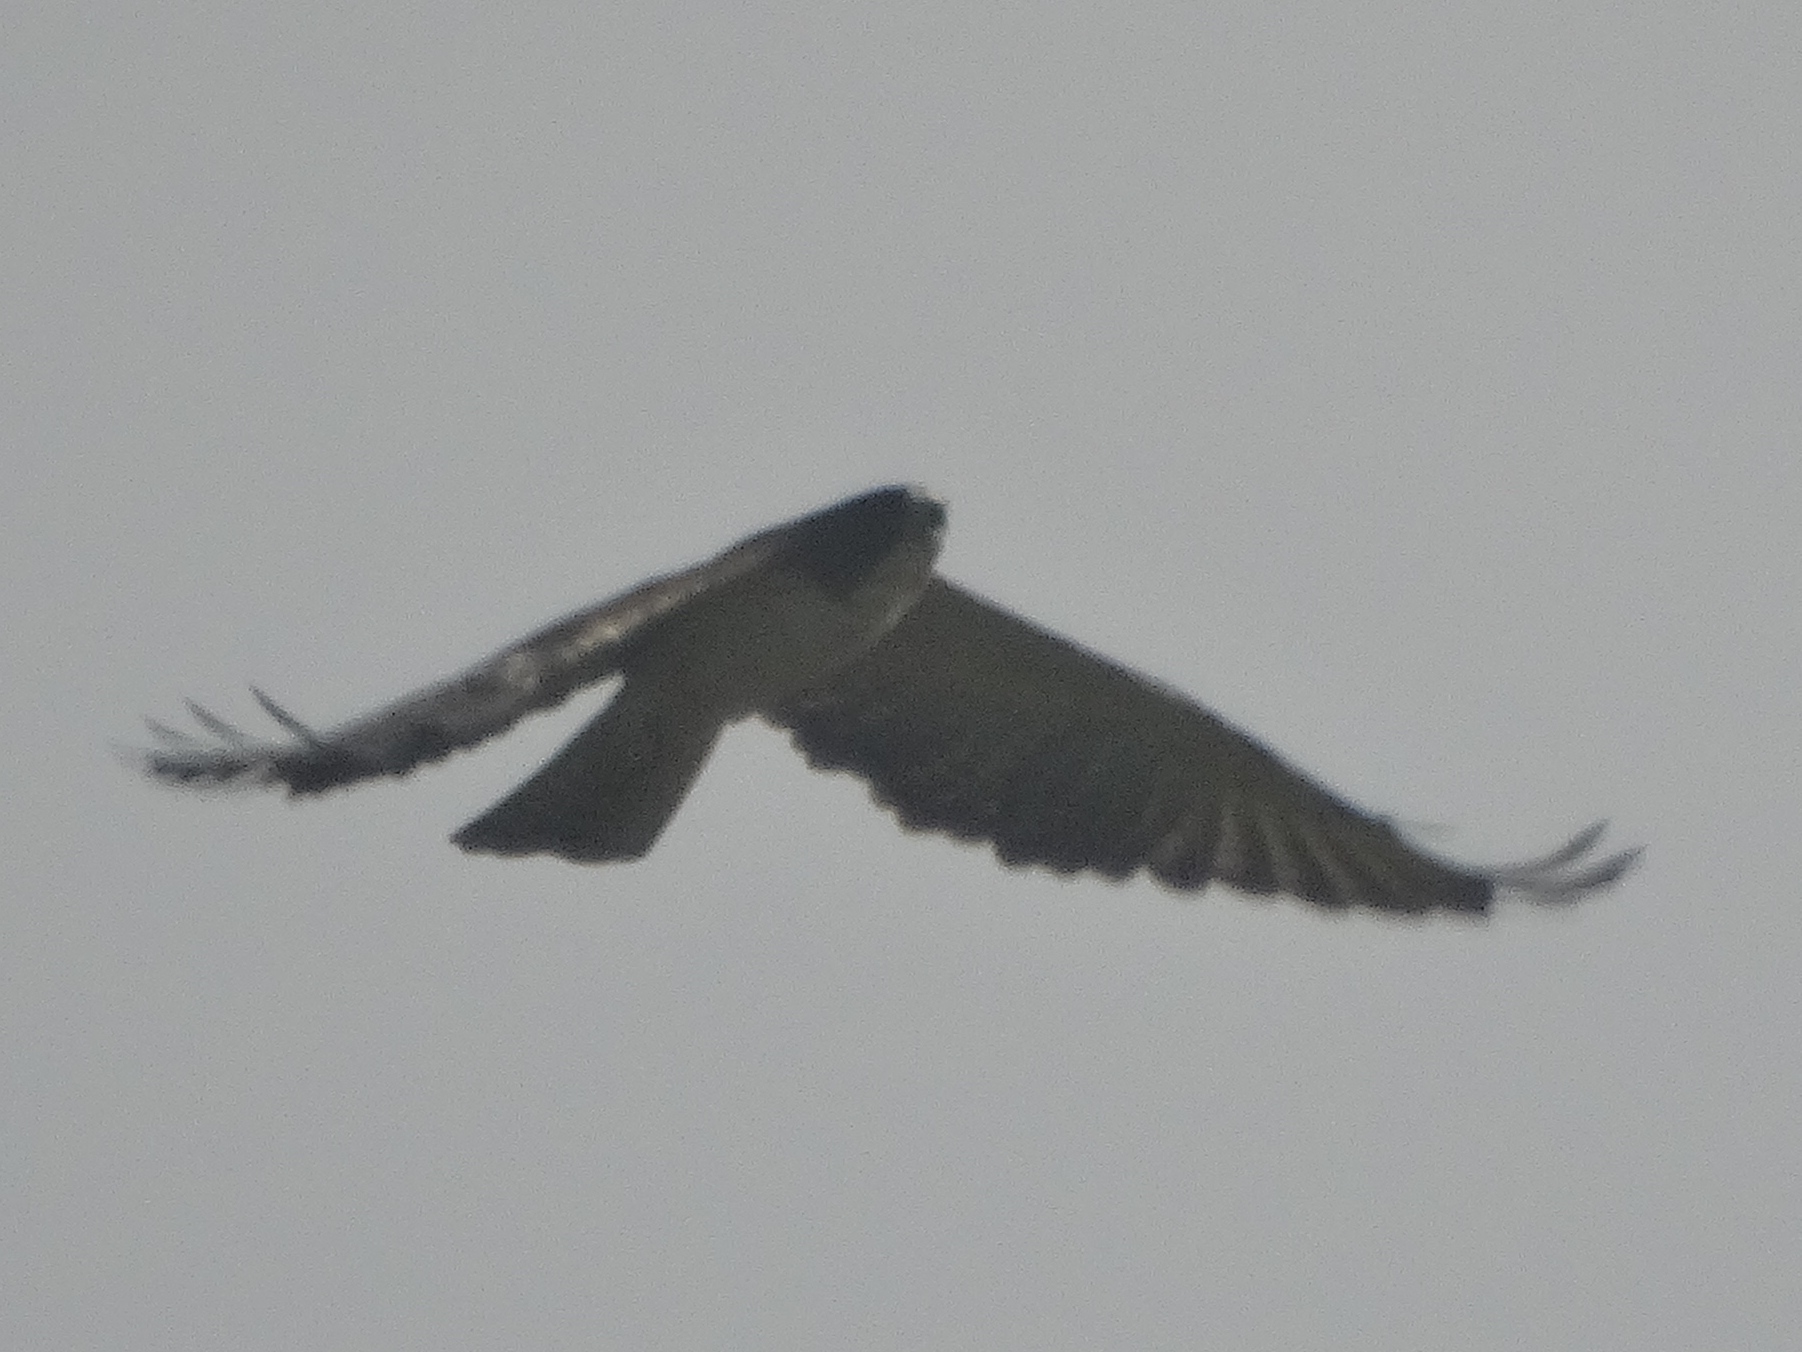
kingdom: Animalia
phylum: Chordata
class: Aves
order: Accipitriformes
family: Accipitridae
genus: Buteo
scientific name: Buteo brachyurus
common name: Short-tailed hawk
